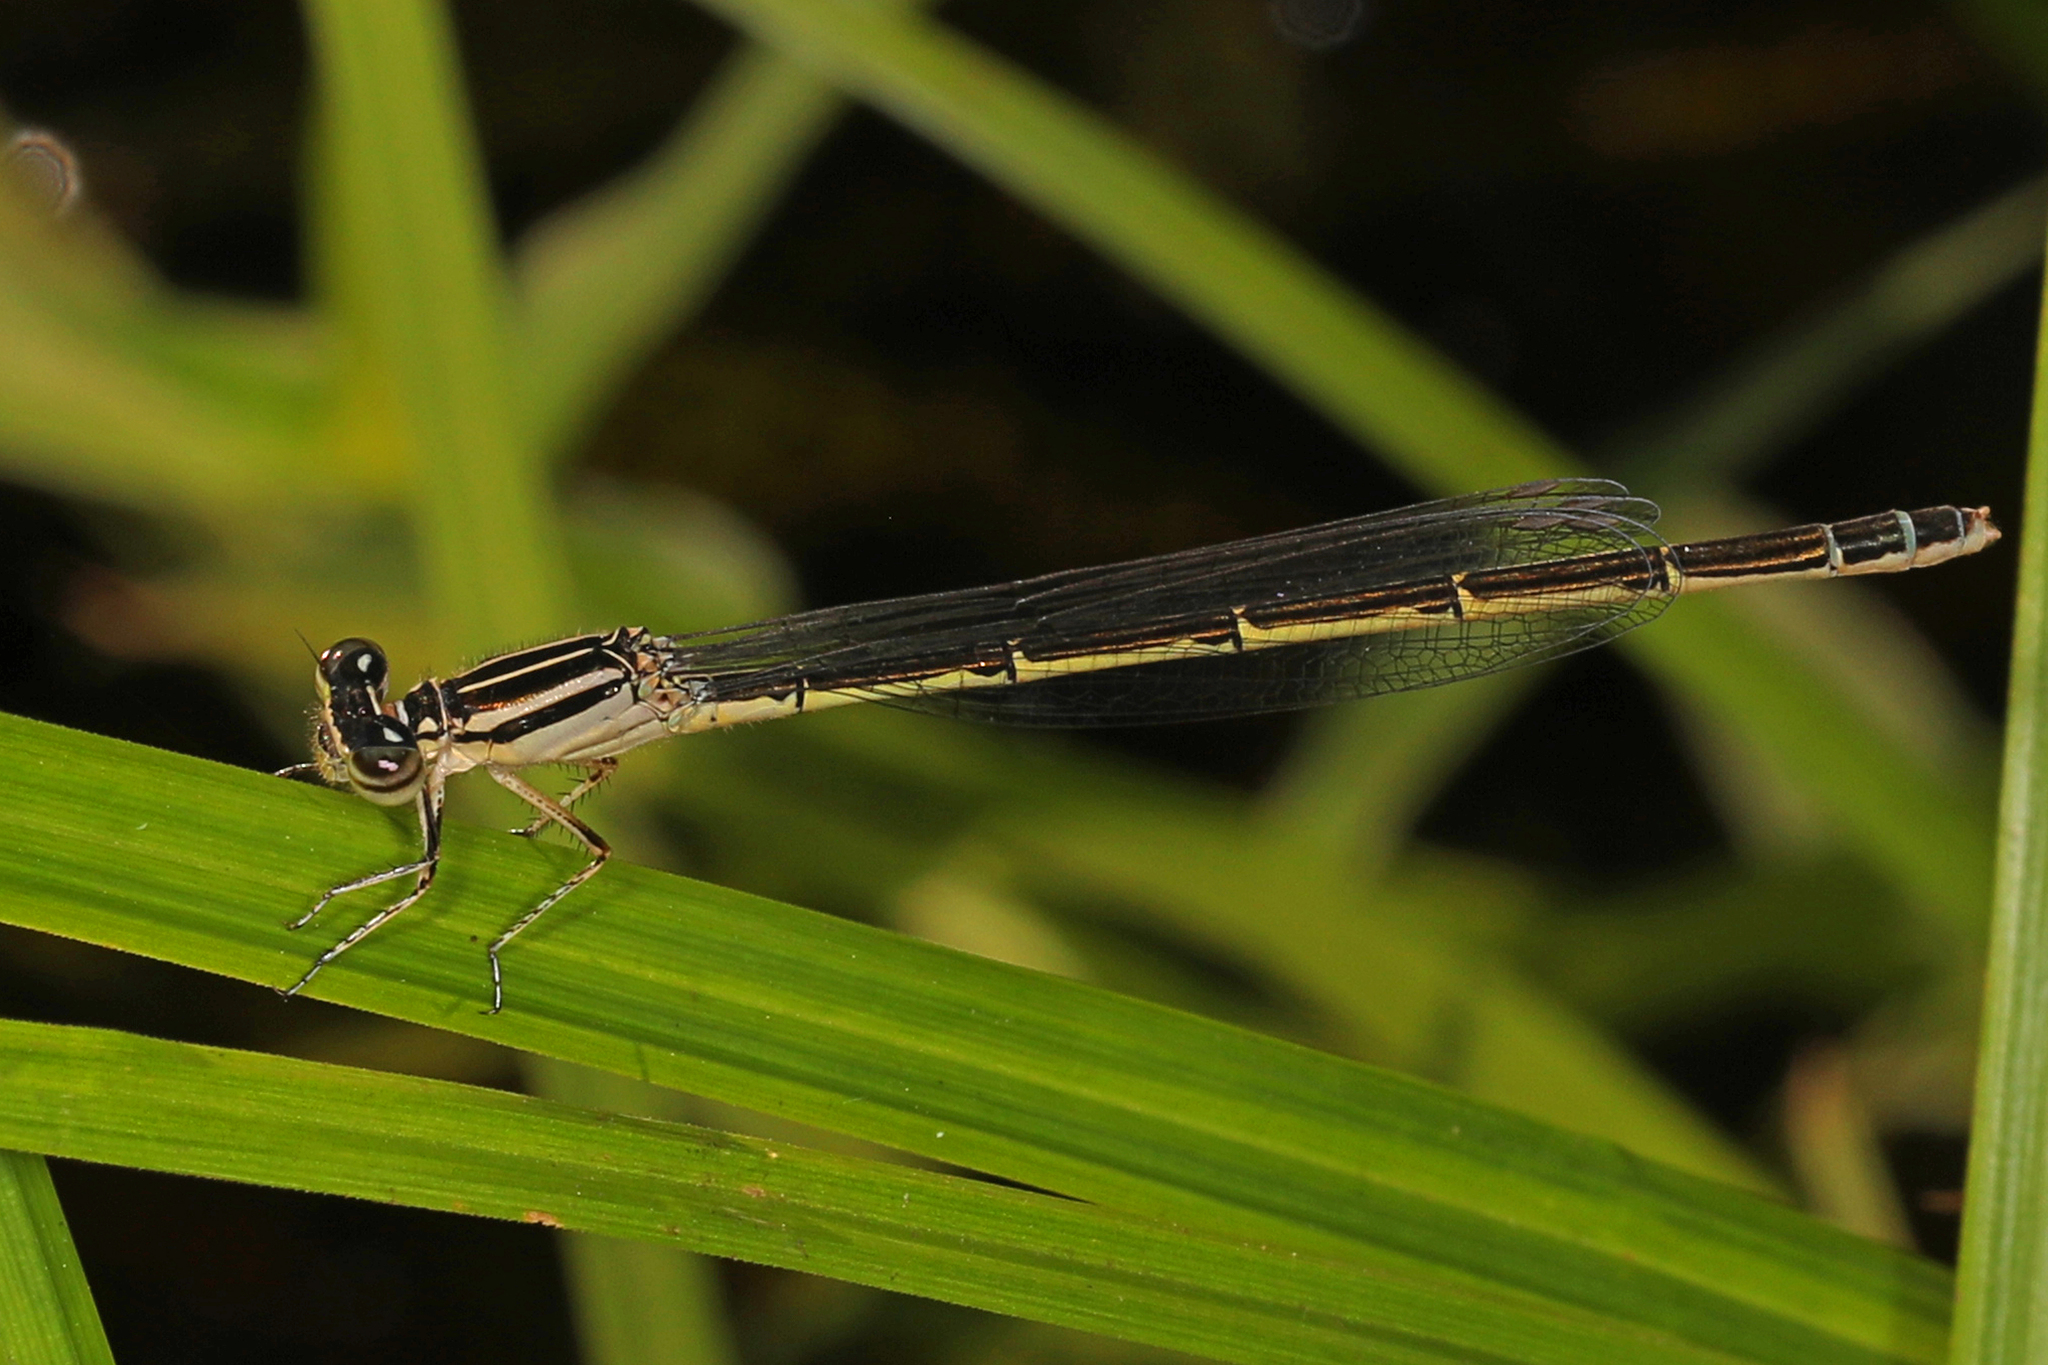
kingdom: Animalia
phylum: Arthropoda
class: Insecta
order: Odonata
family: Coenagrionidae
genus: Enallagma
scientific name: Enallagma durum
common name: Big bluet
